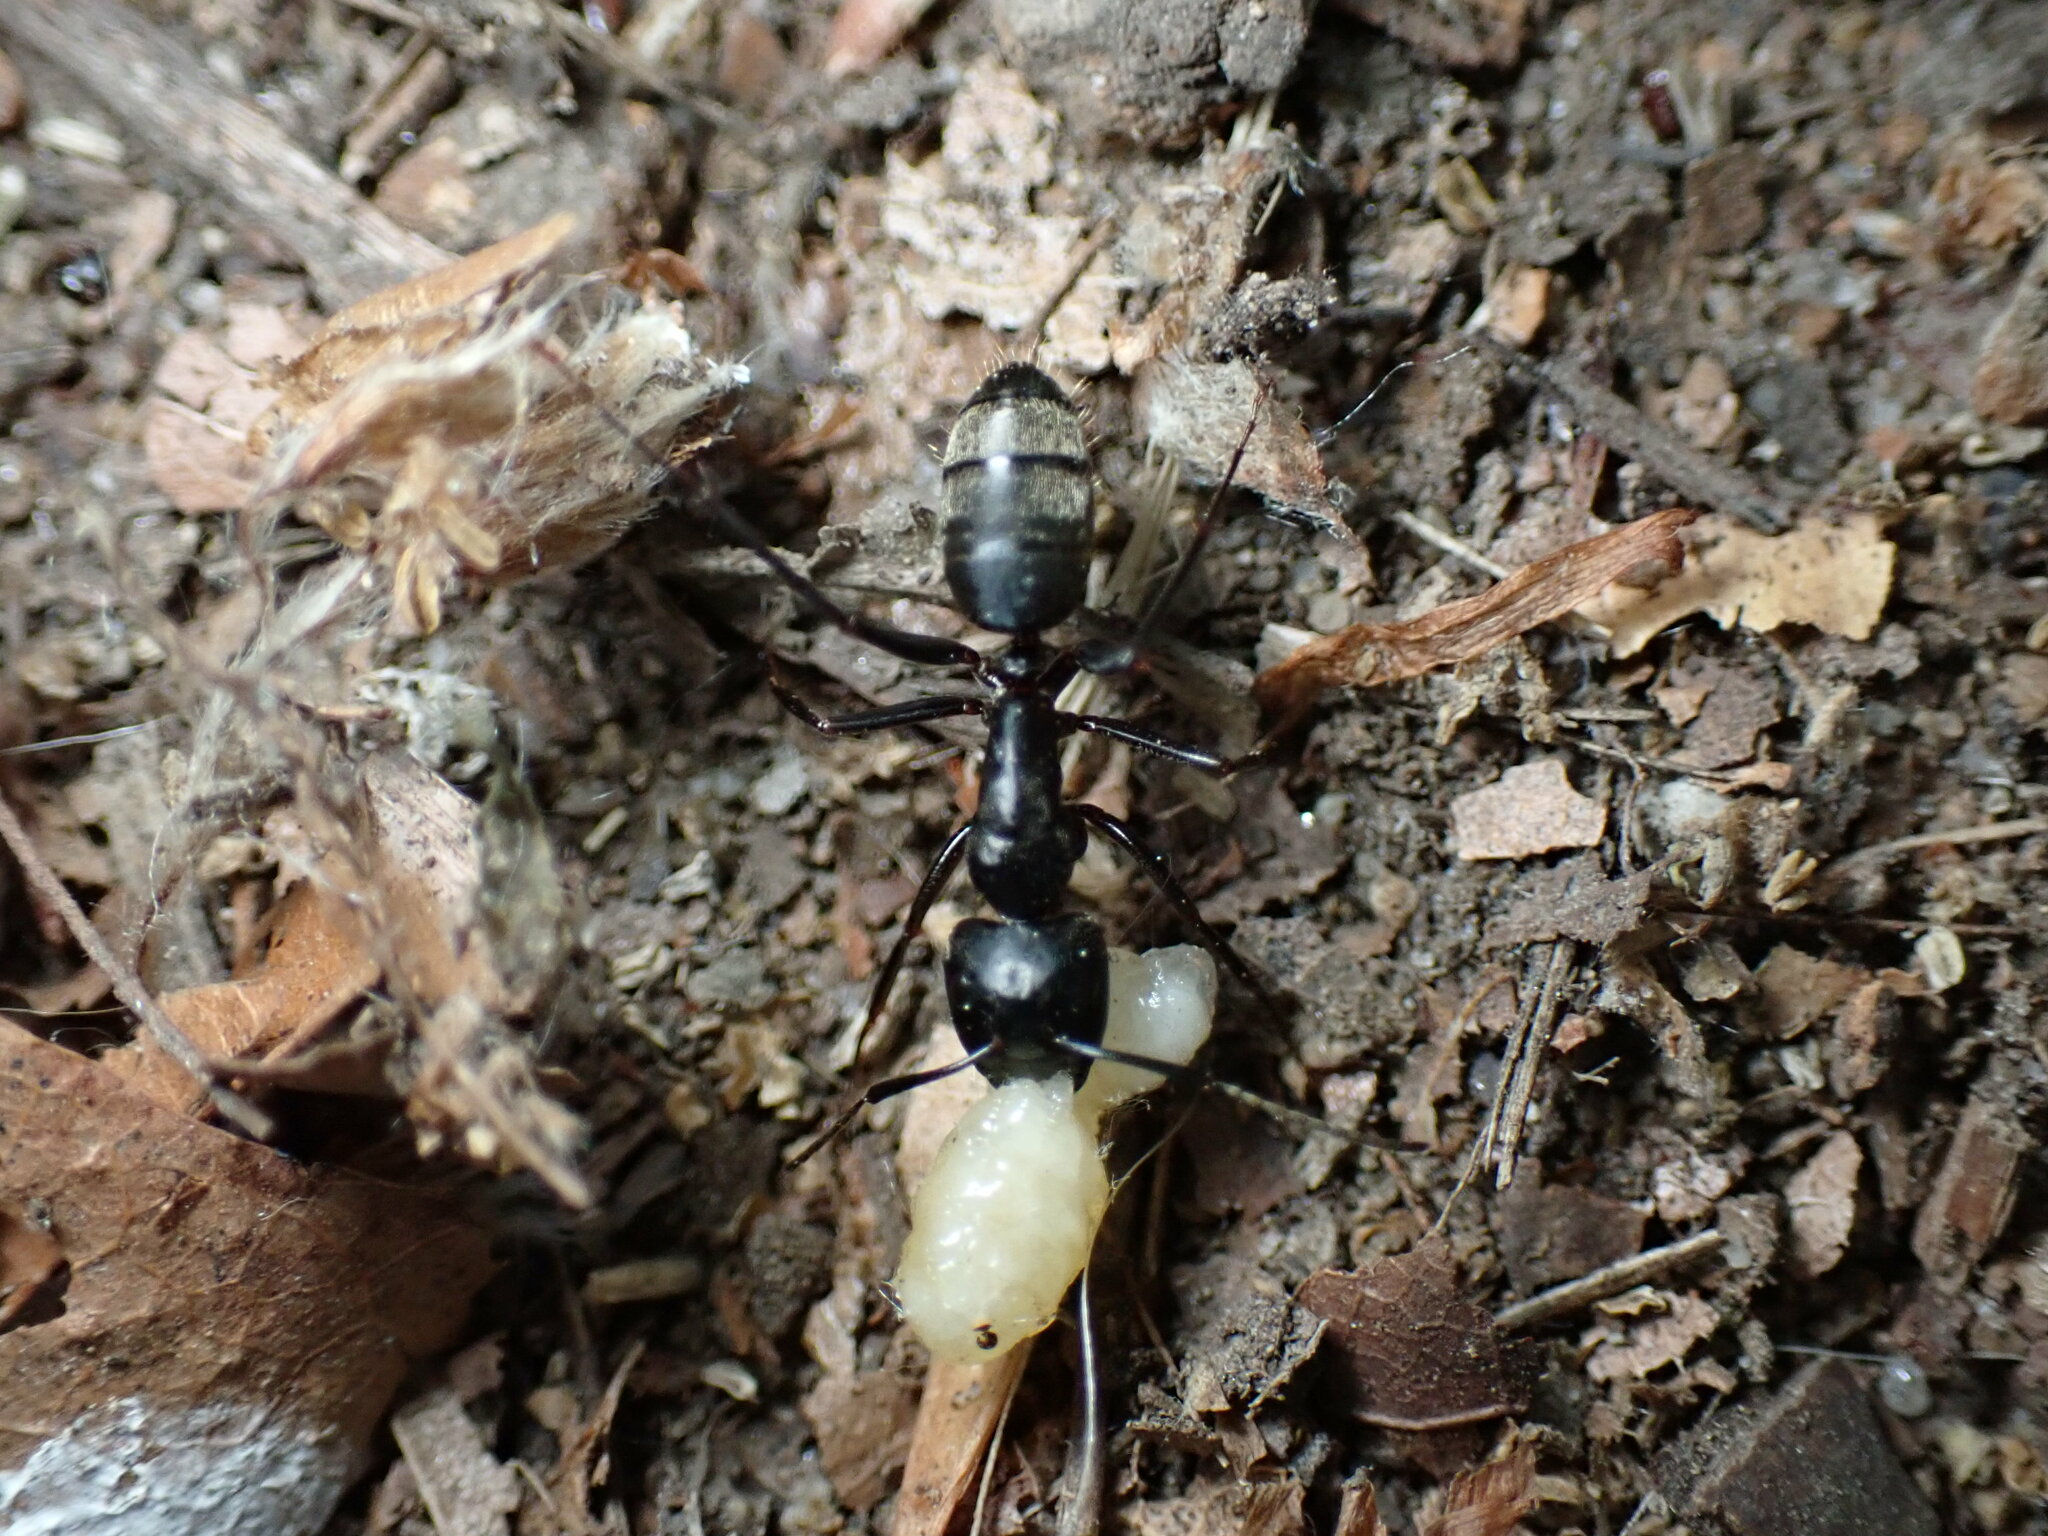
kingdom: Animalia
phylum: Arthropoda
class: Insecta
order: Hymenoptera
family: Formicidae
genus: Camponotus
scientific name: Camponotus pennsylvanicus
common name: Black carpenter ant
